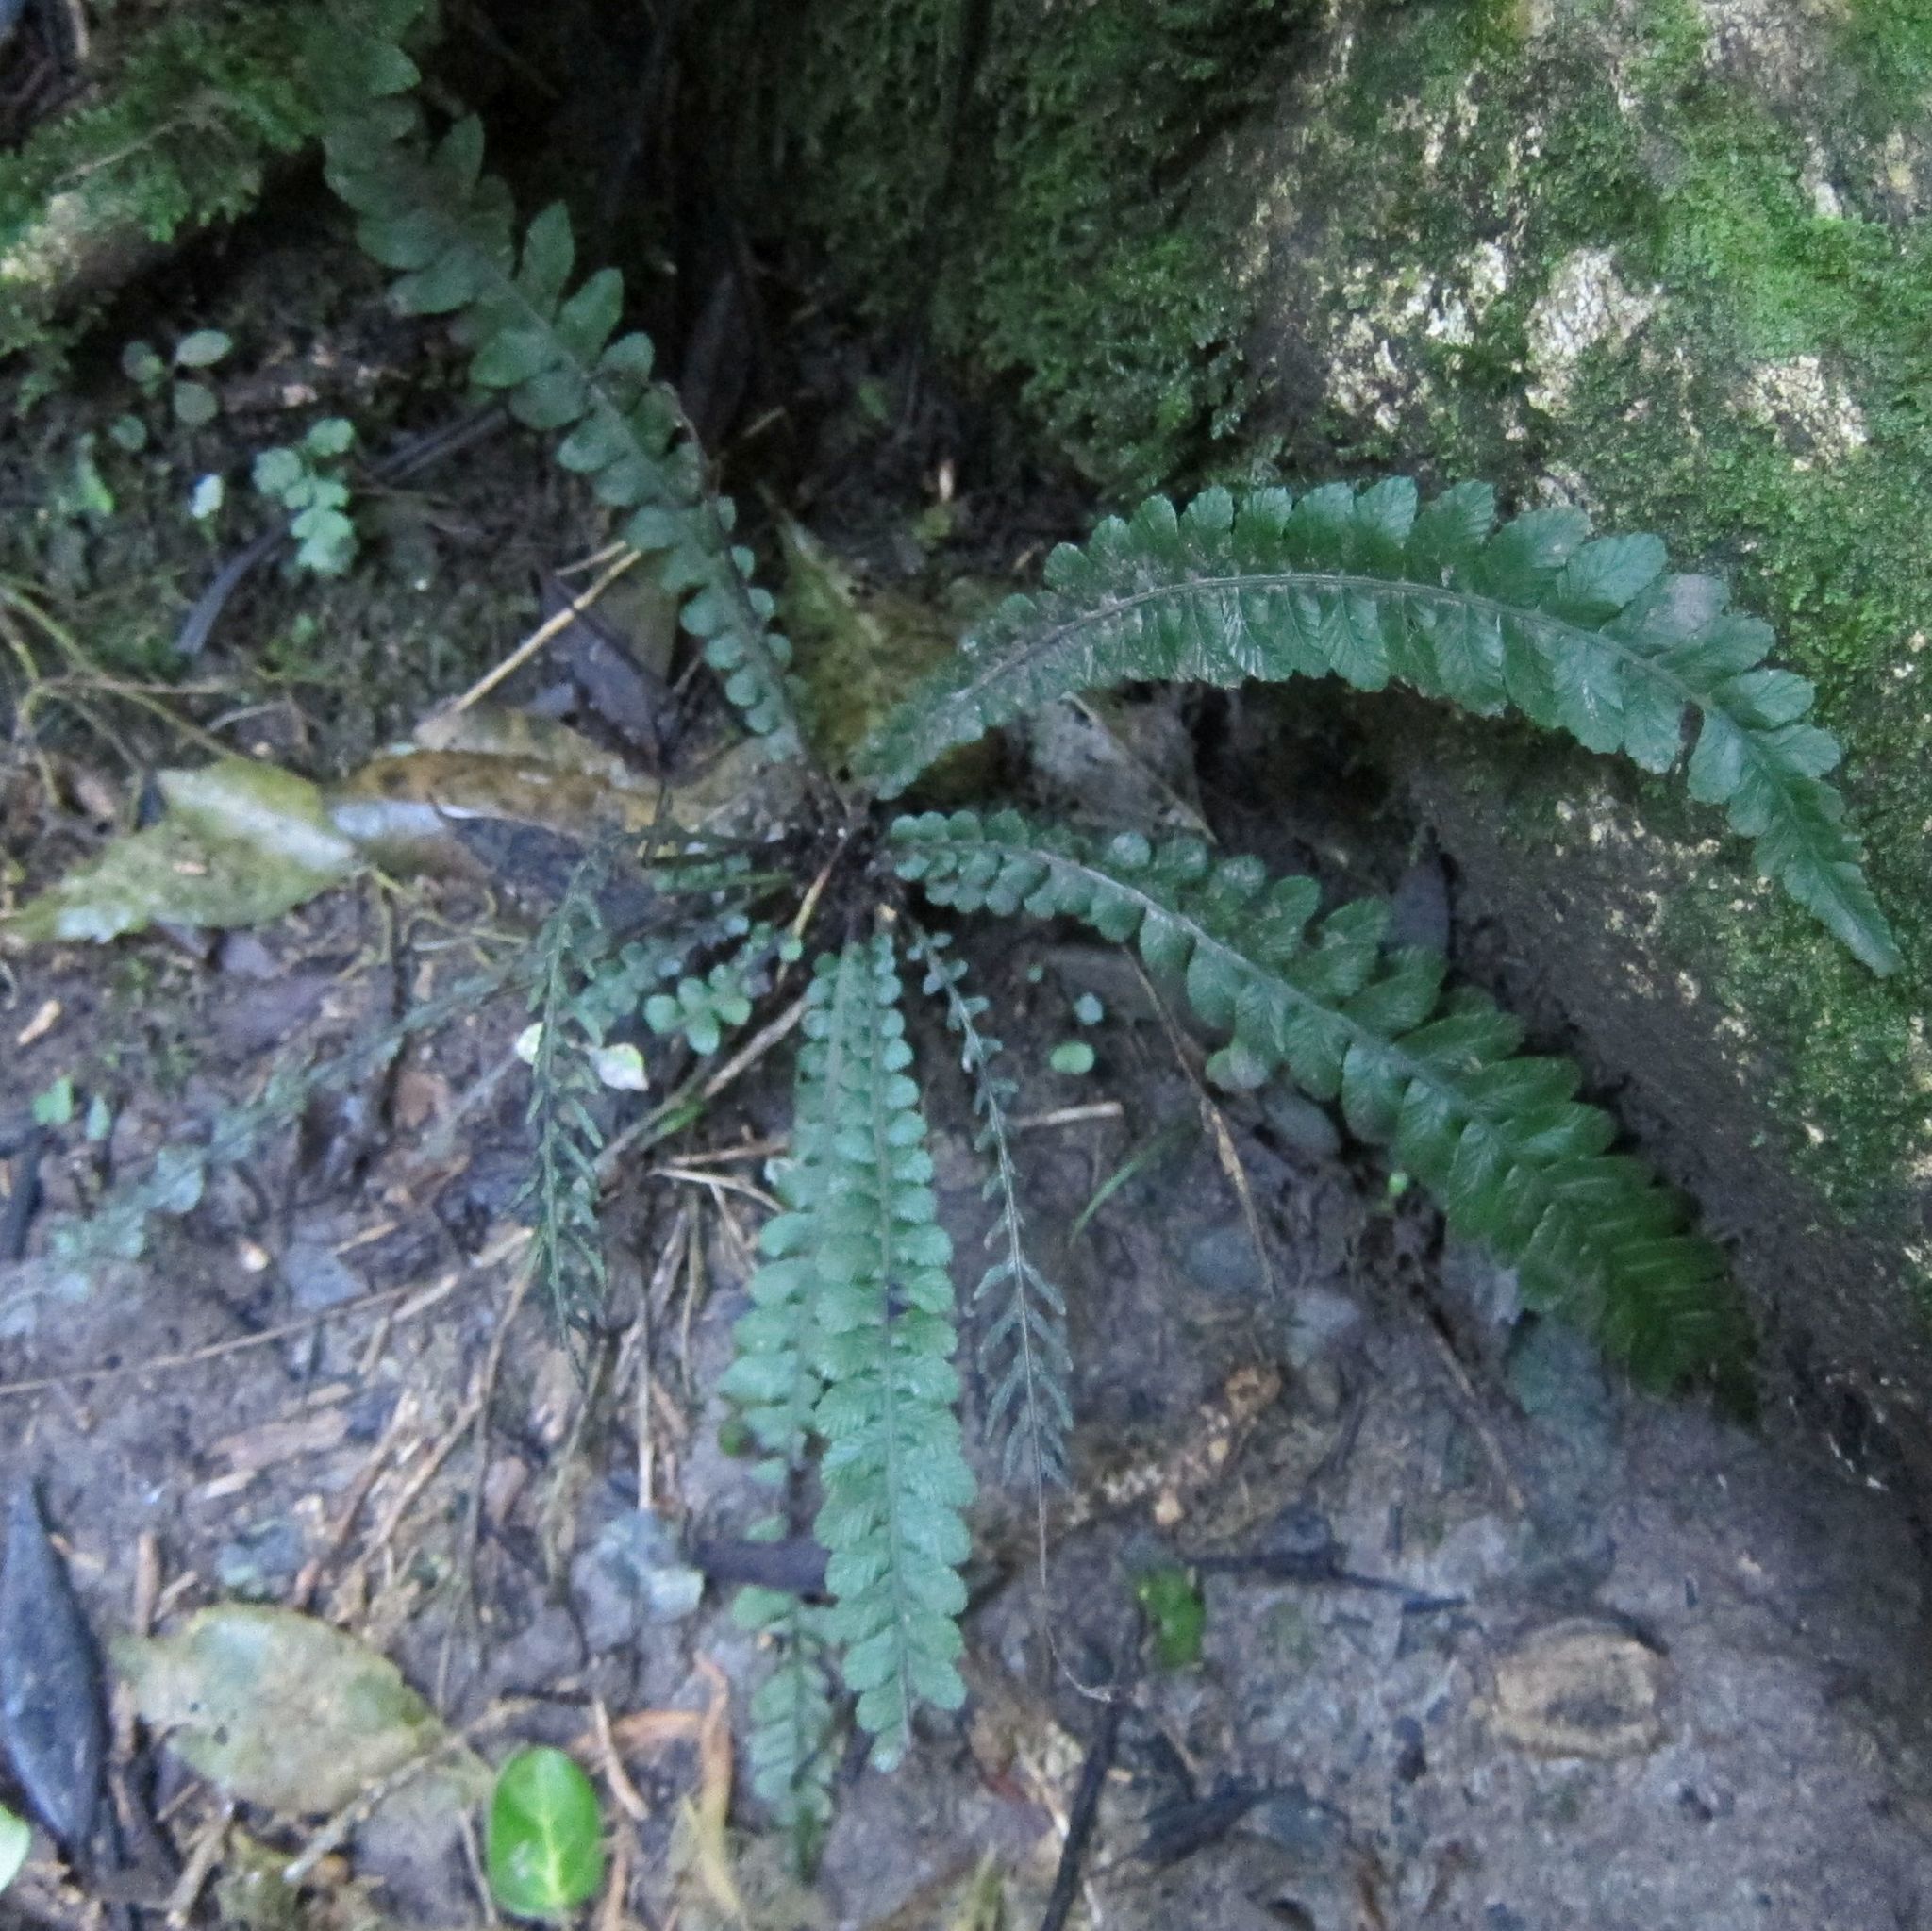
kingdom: Plantae
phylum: Tracheophyta
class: Polypodiopsida
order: Polypodiales
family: Blechnaceae
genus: Austroblechnum
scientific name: Austroblechnum membranaceum
